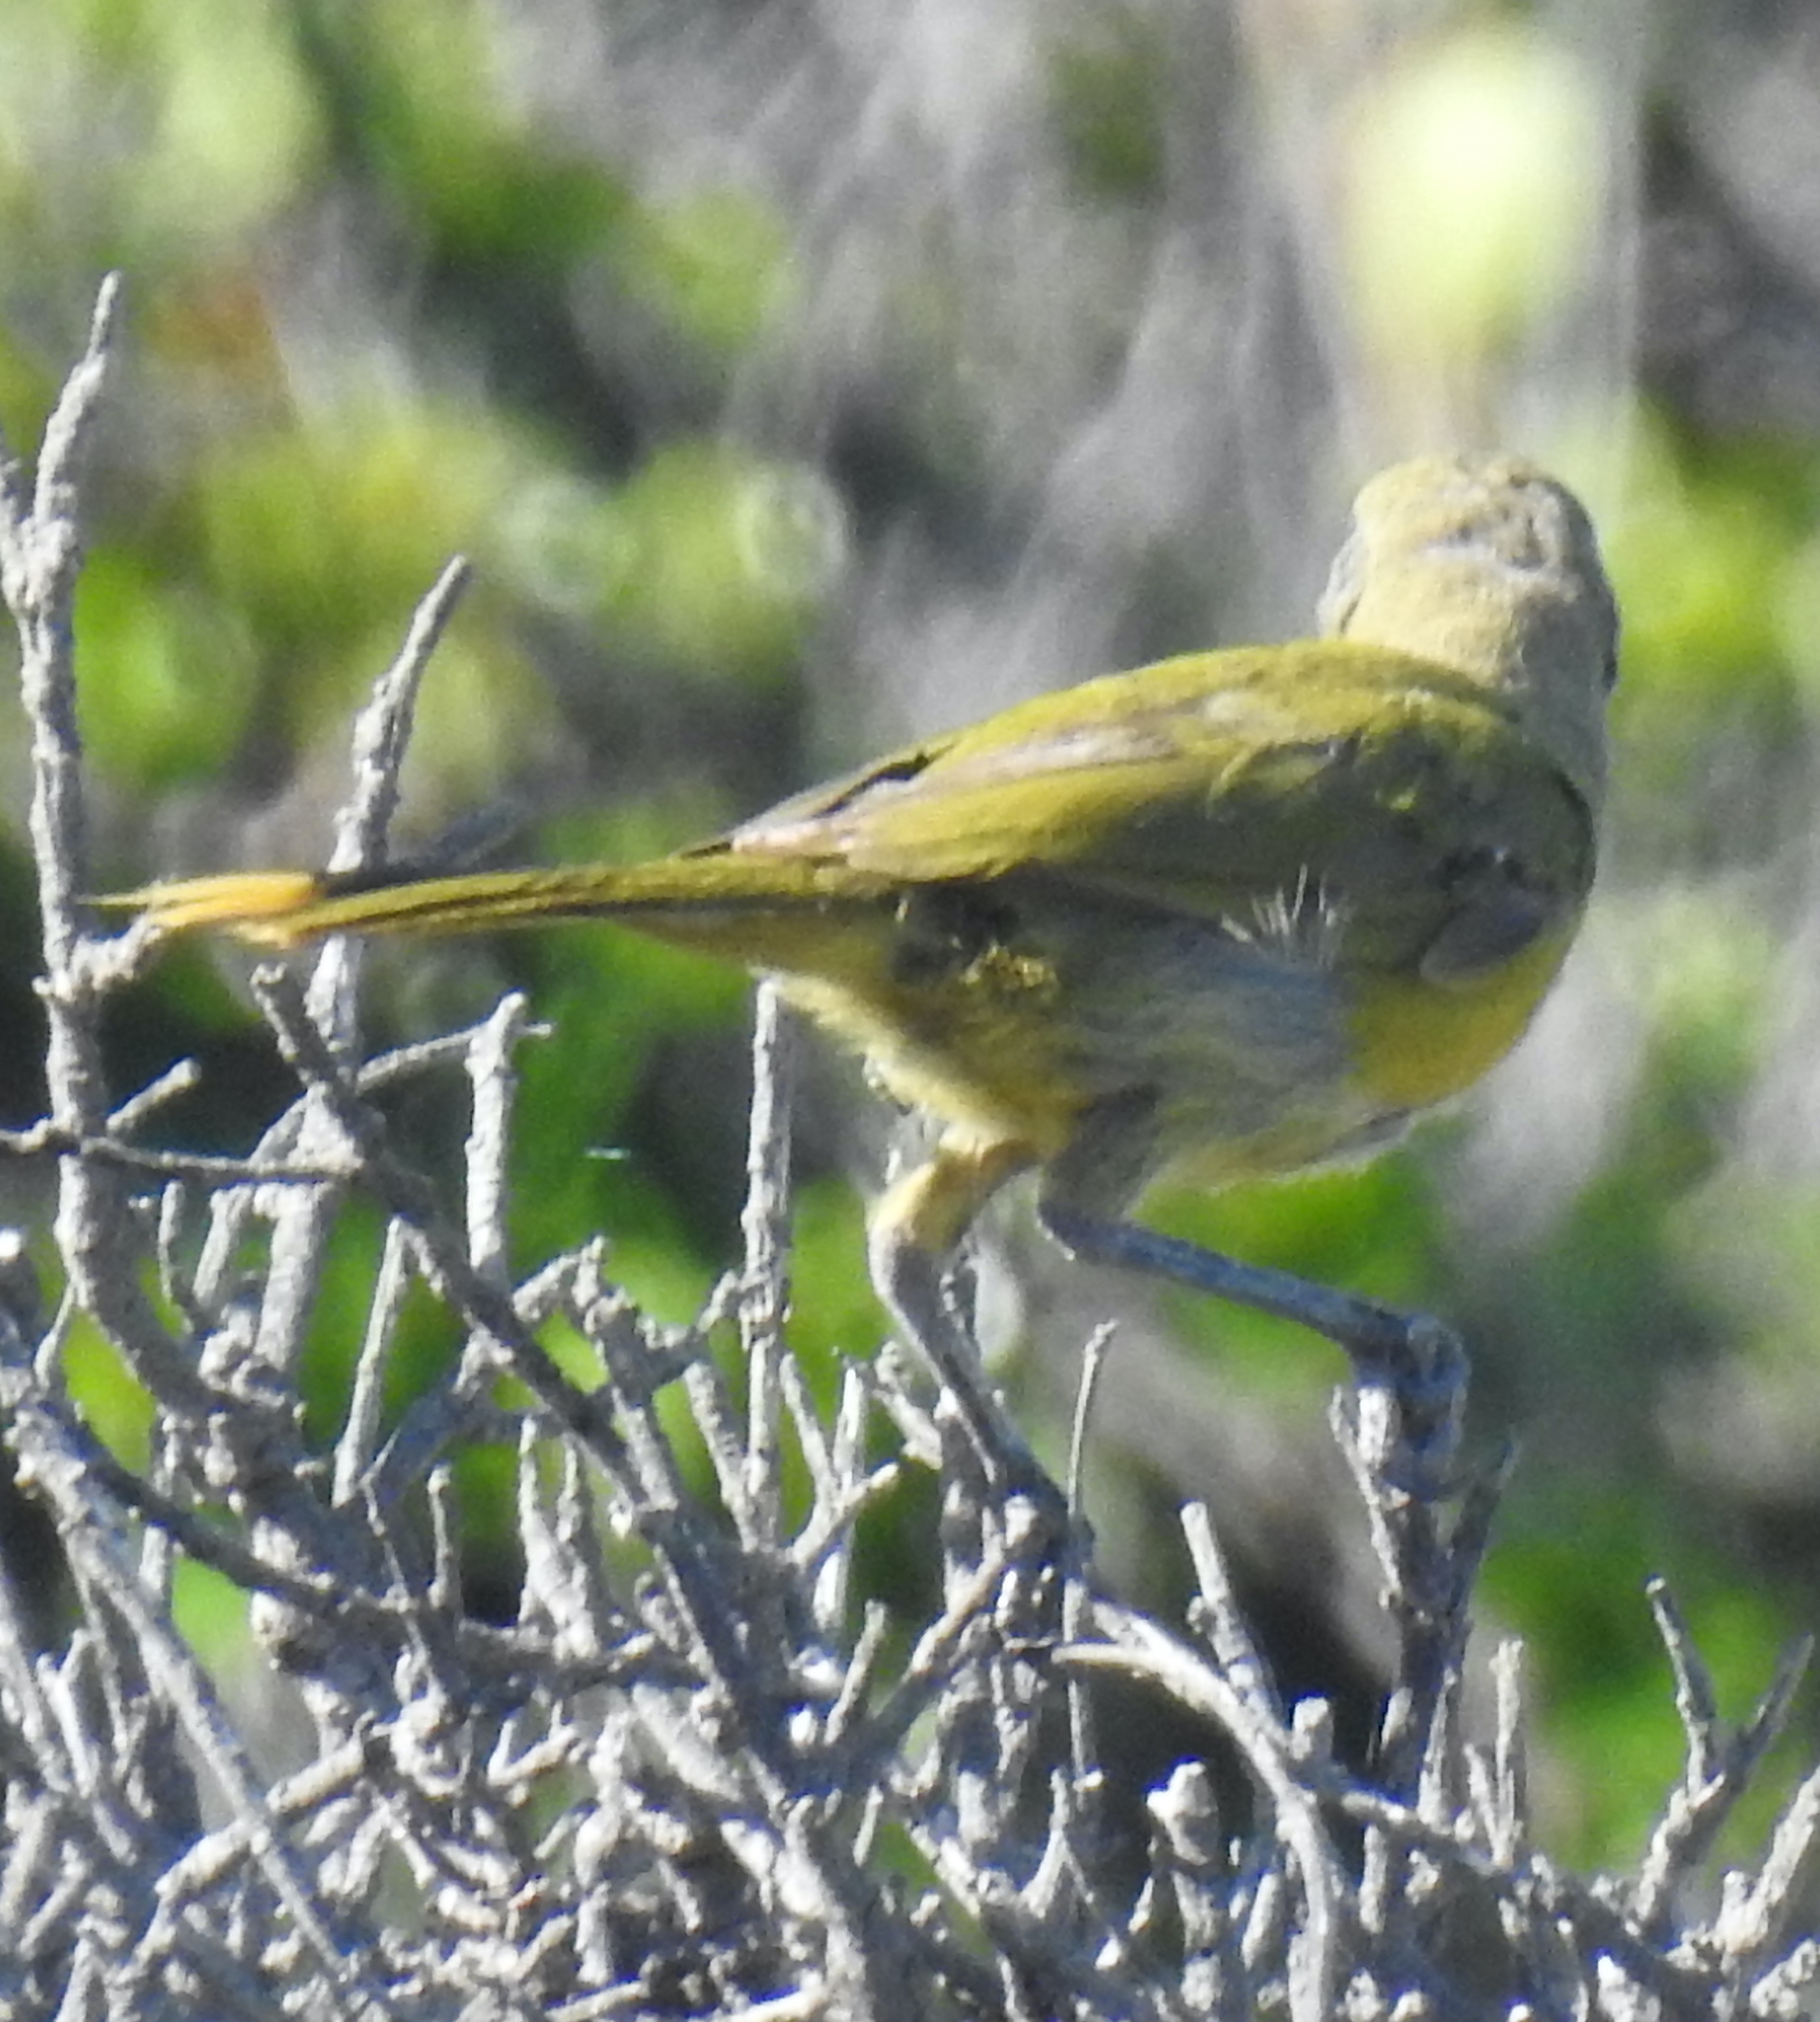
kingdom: Animalia
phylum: Chordata
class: Aves
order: Passeriformes
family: Malaconotidae
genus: Telophorus
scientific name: Telophorus zeylonus
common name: Bokmakierie
